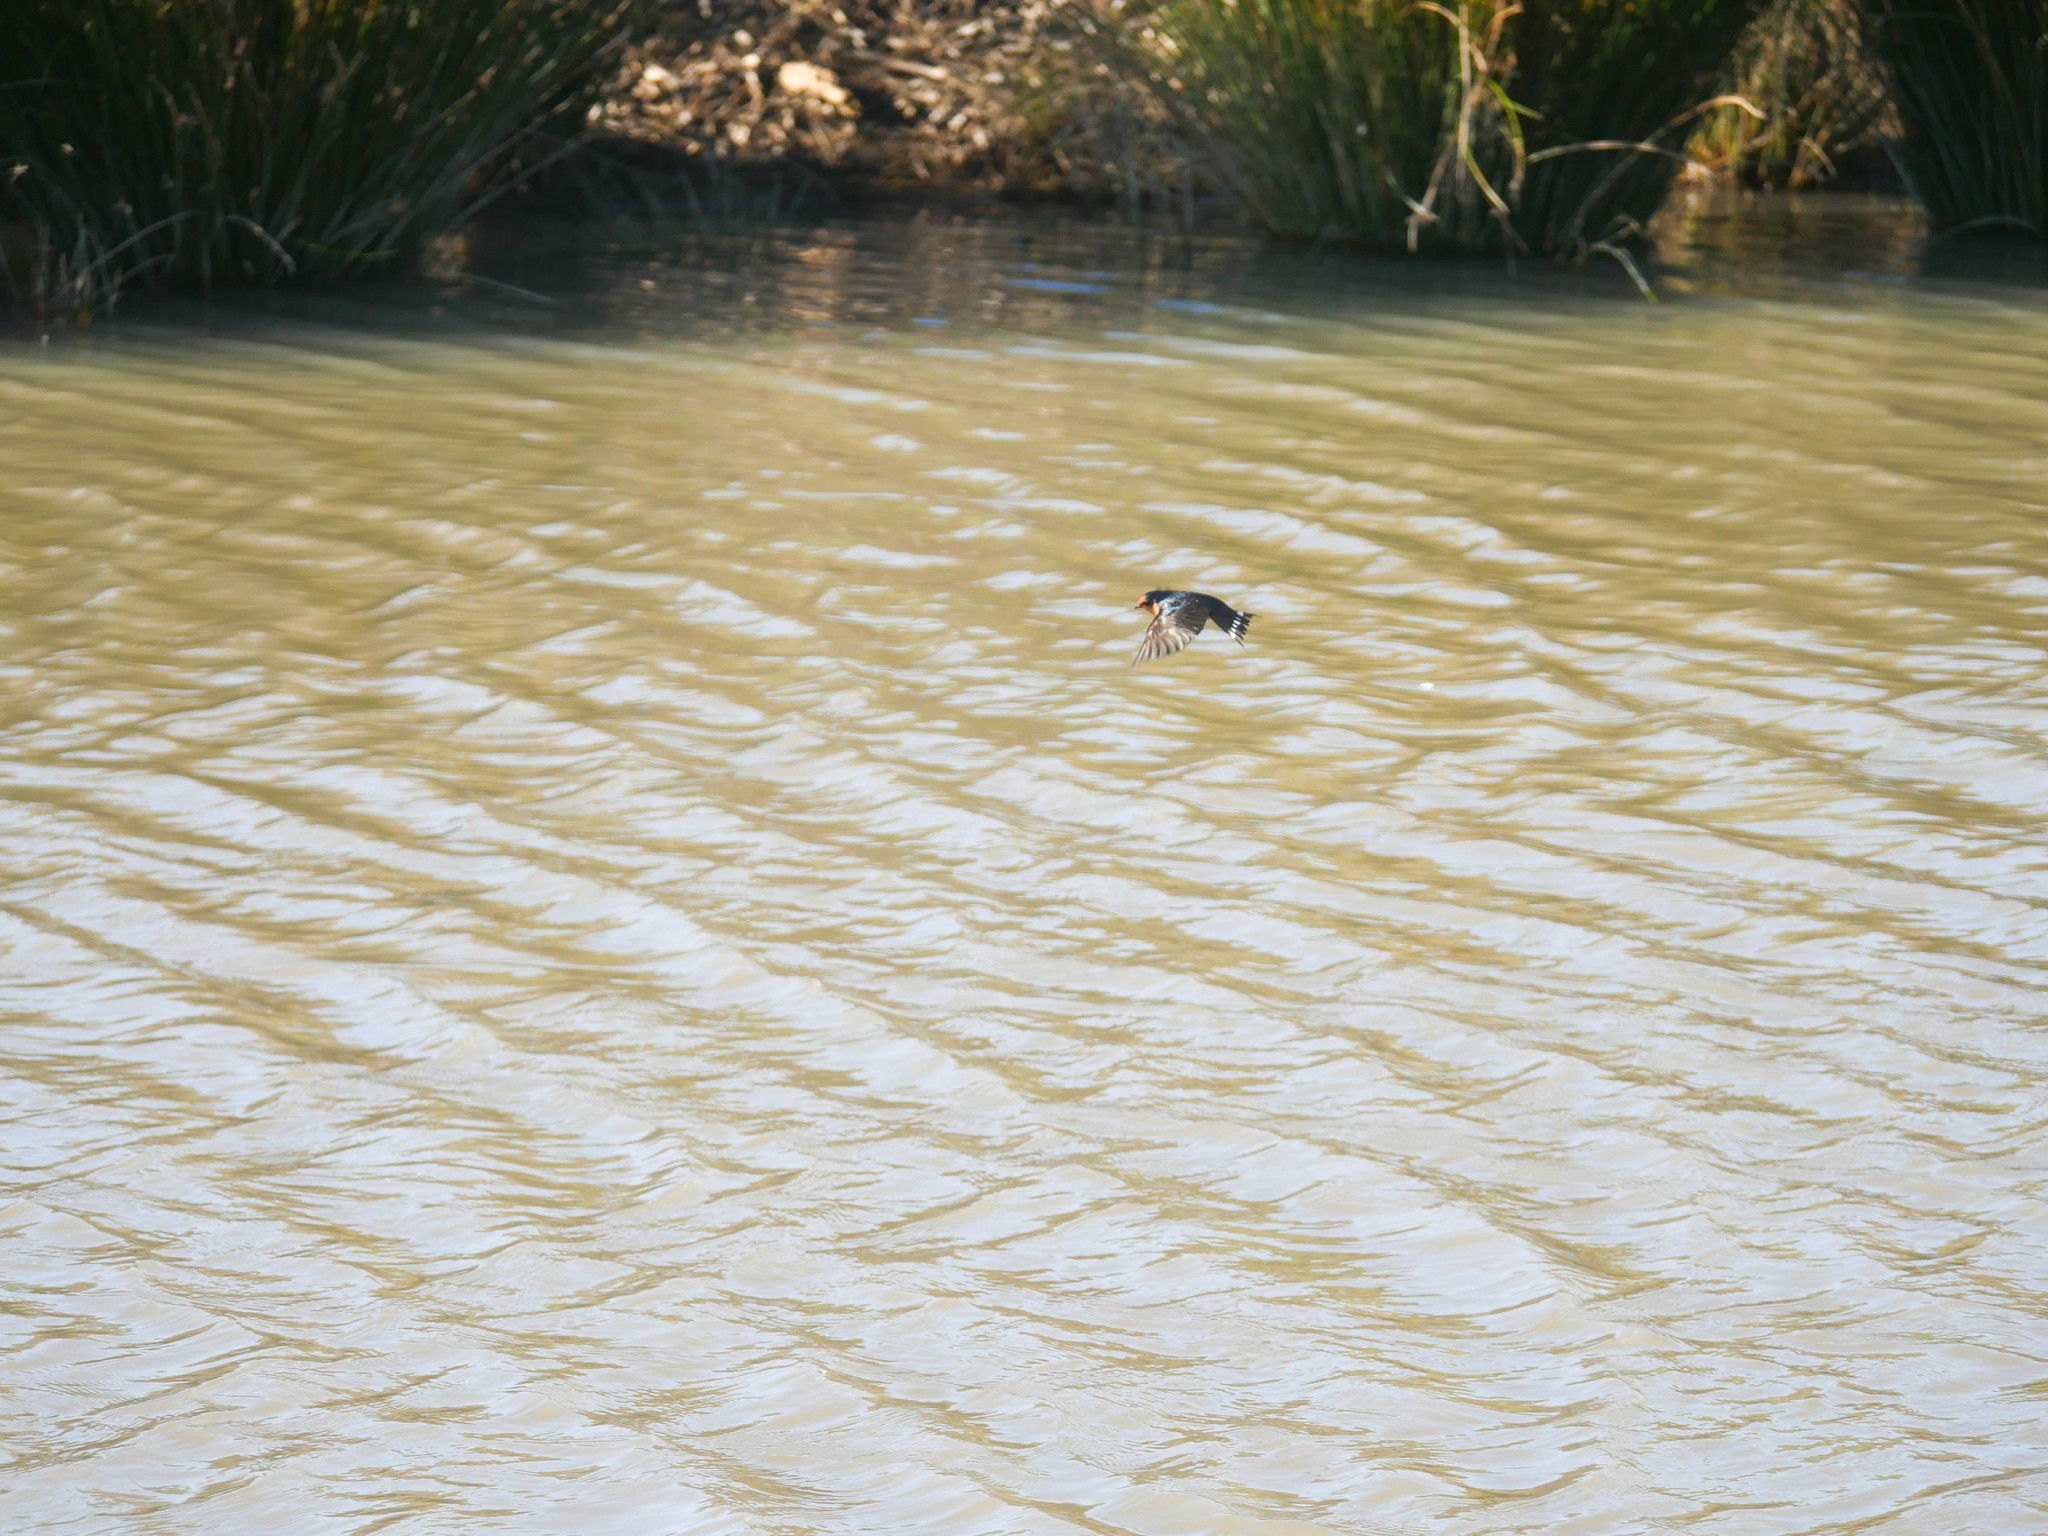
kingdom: Animalia
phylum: Chordata
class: Aves
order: Passeriformes
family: Hirundinidae
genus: Hirundo
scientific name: Hirundo neoxena
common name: Welcome swallow
